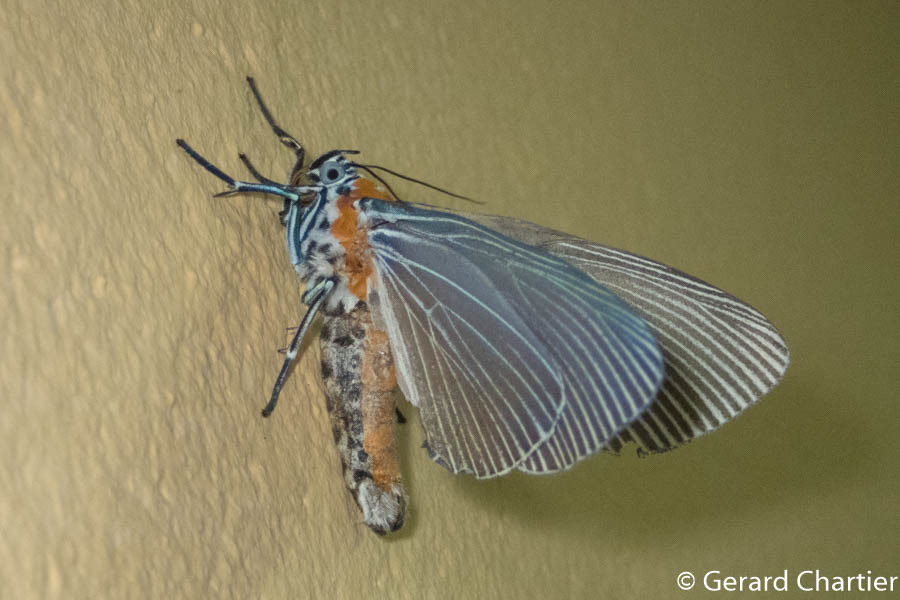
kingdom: Animalia
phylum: Arthropoda
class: Insecta
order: Lepidoptera
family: Erebidae
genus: Euplocia
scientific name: Euplocia membliaria
